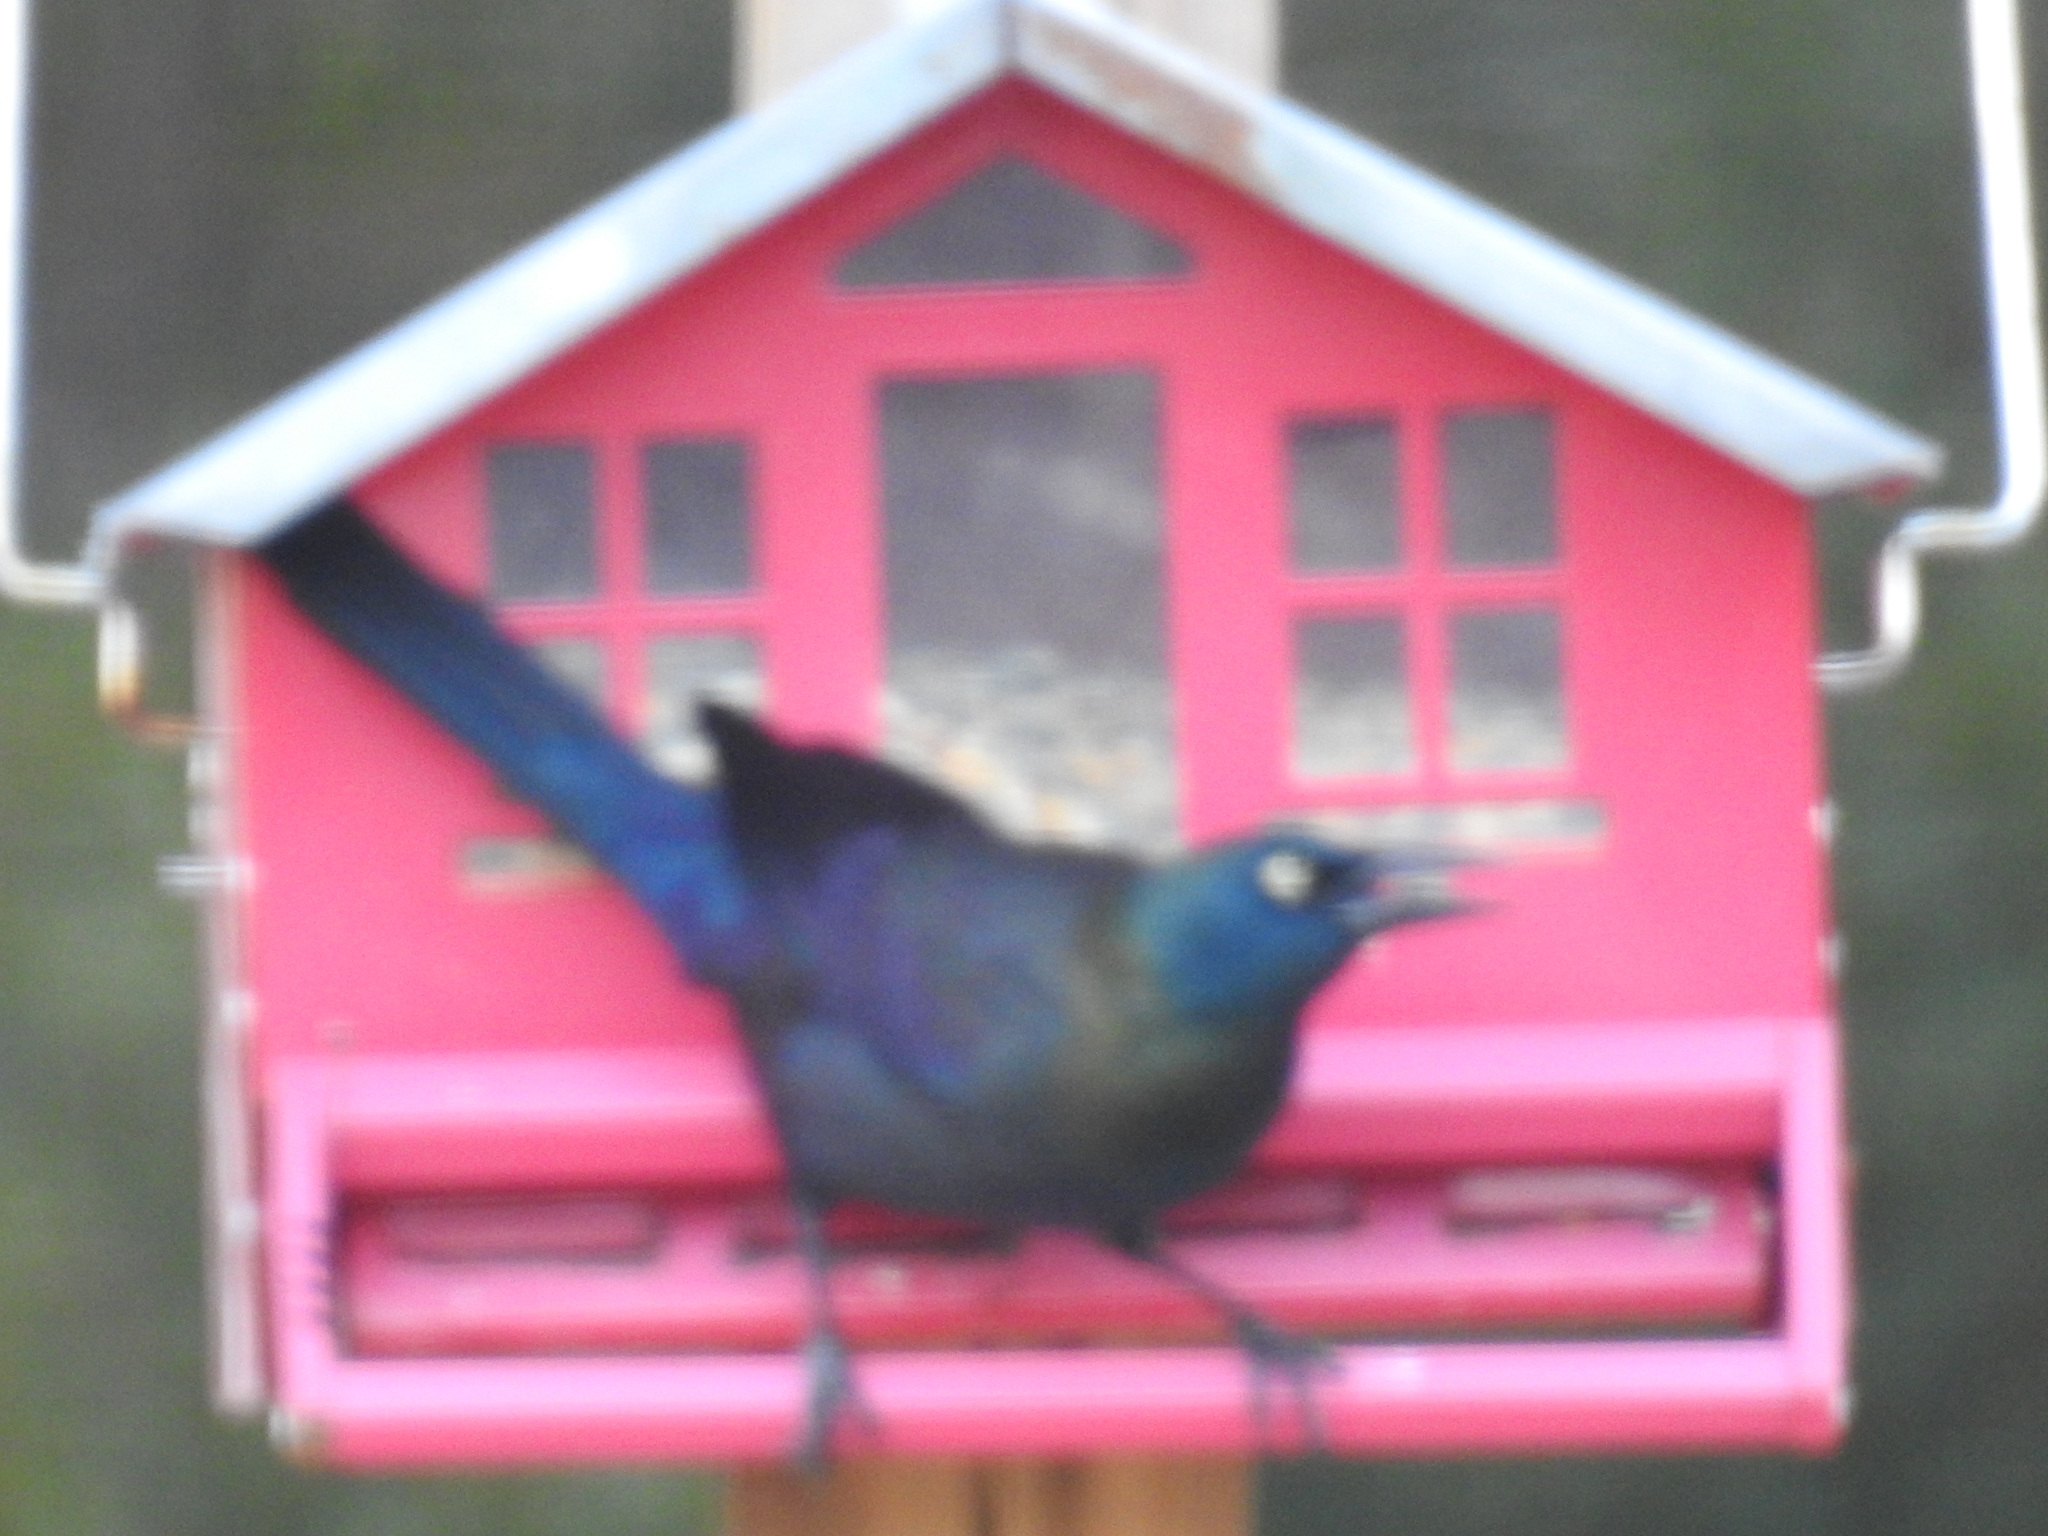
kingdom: Animalia
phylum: Chordata
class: Aves
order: Passeriformes
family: Icteridae
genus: Quiscalus
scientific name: Quiscalus quiscula
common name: Common grackle
